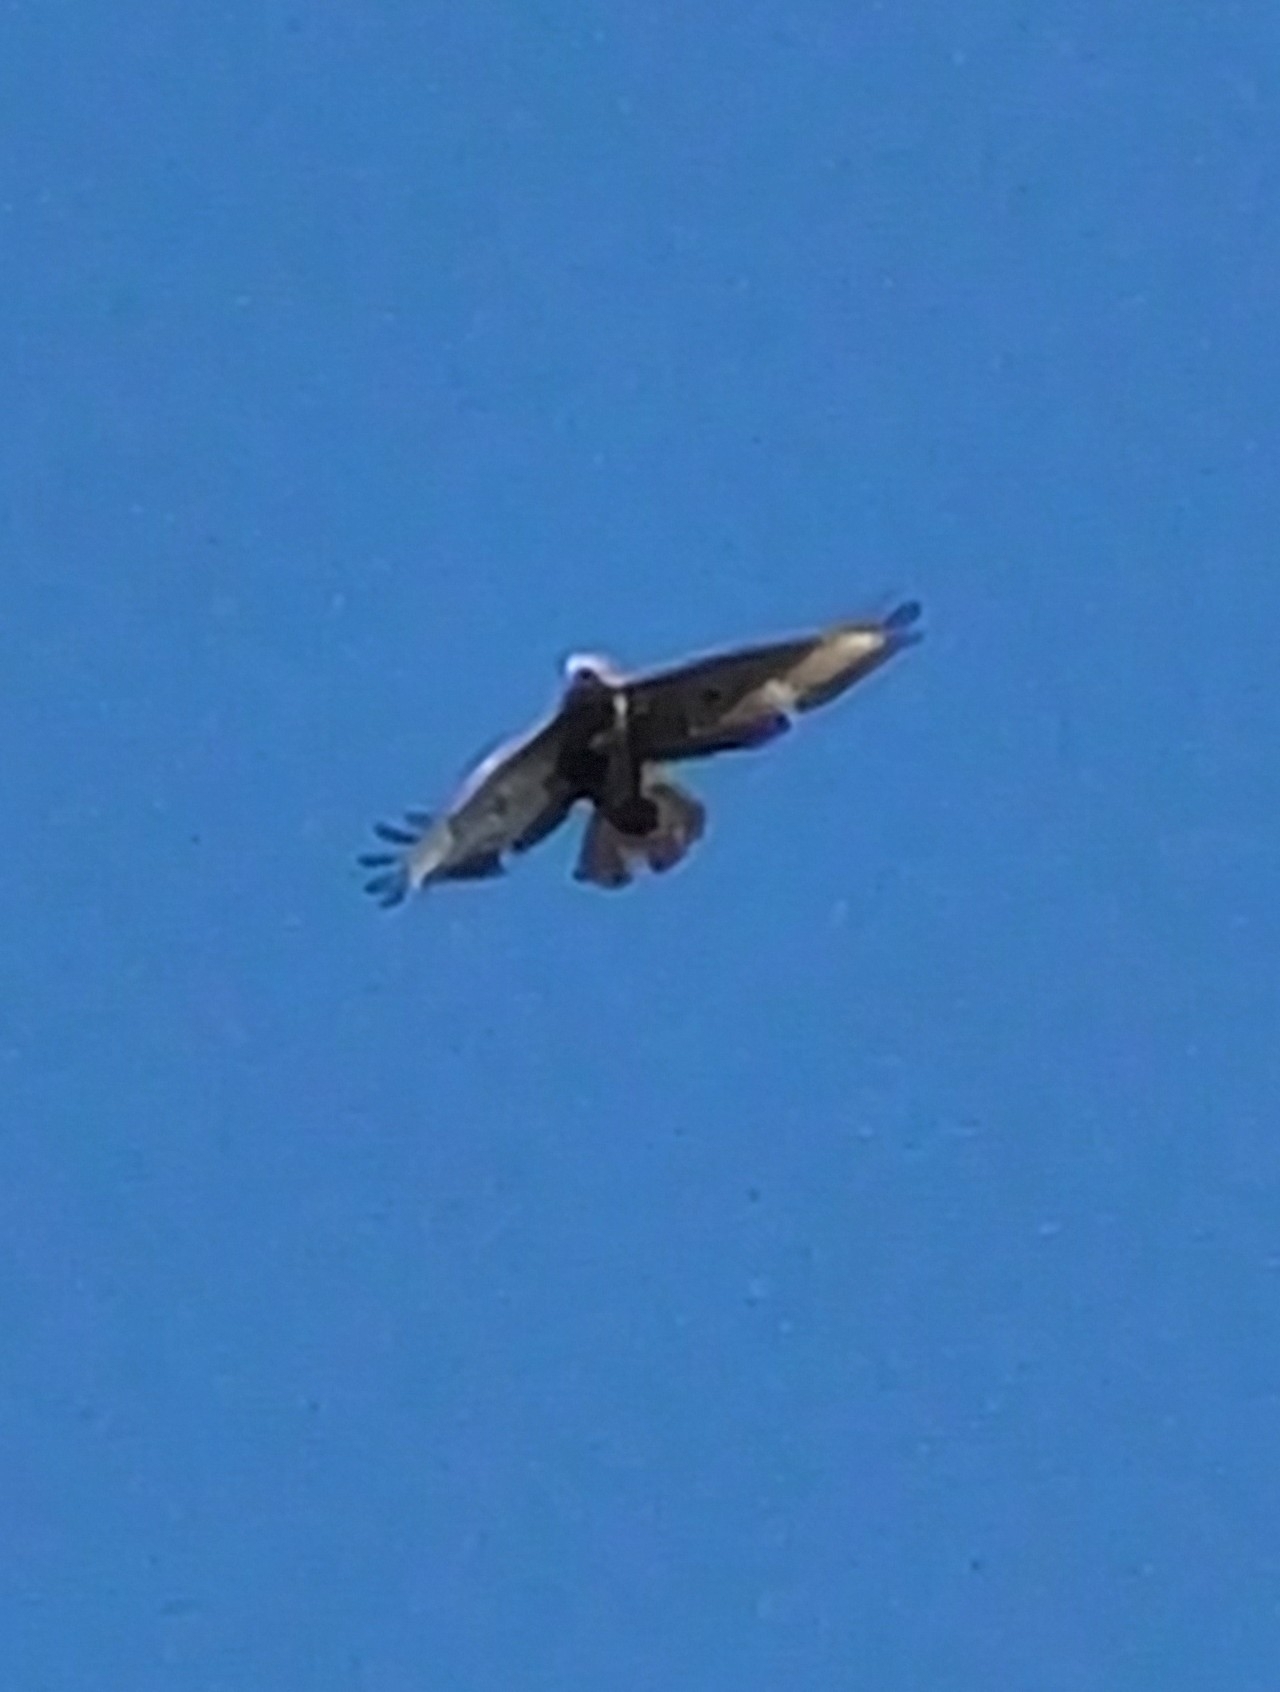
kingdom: Animalia
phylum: Chordata
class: Aves
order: Accipitriformes
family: Accipitridae
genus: Buteo
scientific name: Buteo buteo
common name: Common buzzard
